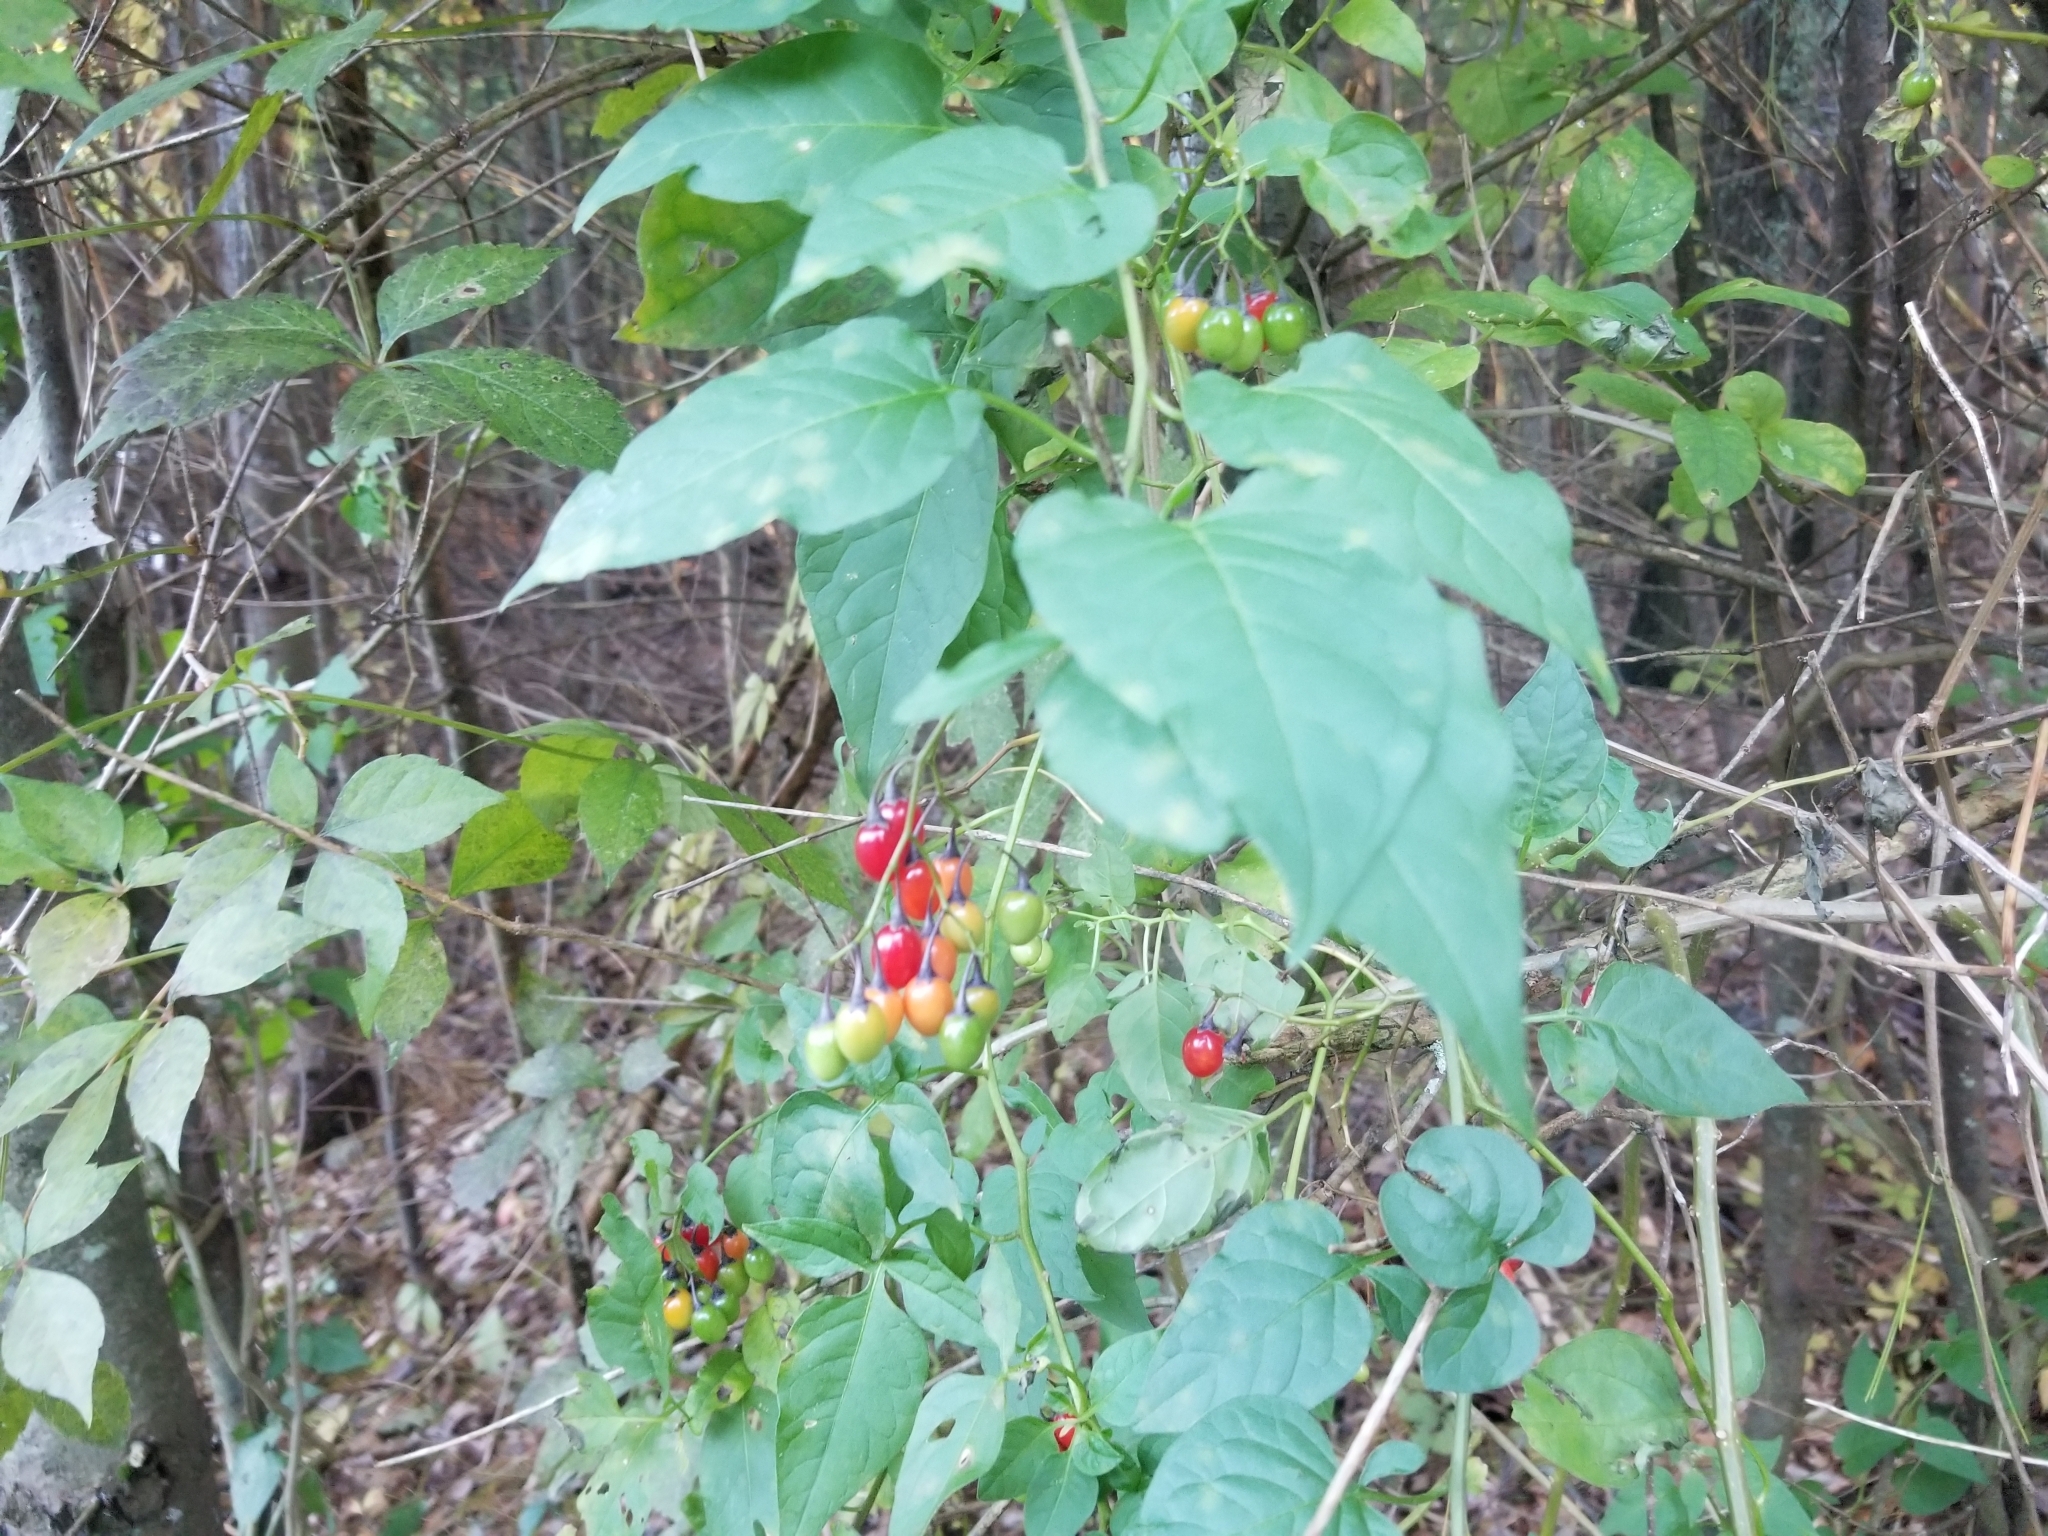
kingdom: Plantae
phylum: Tracheophyta
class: Magnoliopsida
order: Solanales
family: Solanaceae
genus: Solanum
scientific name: Solanum dulcamara
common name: Climbing nightshade
